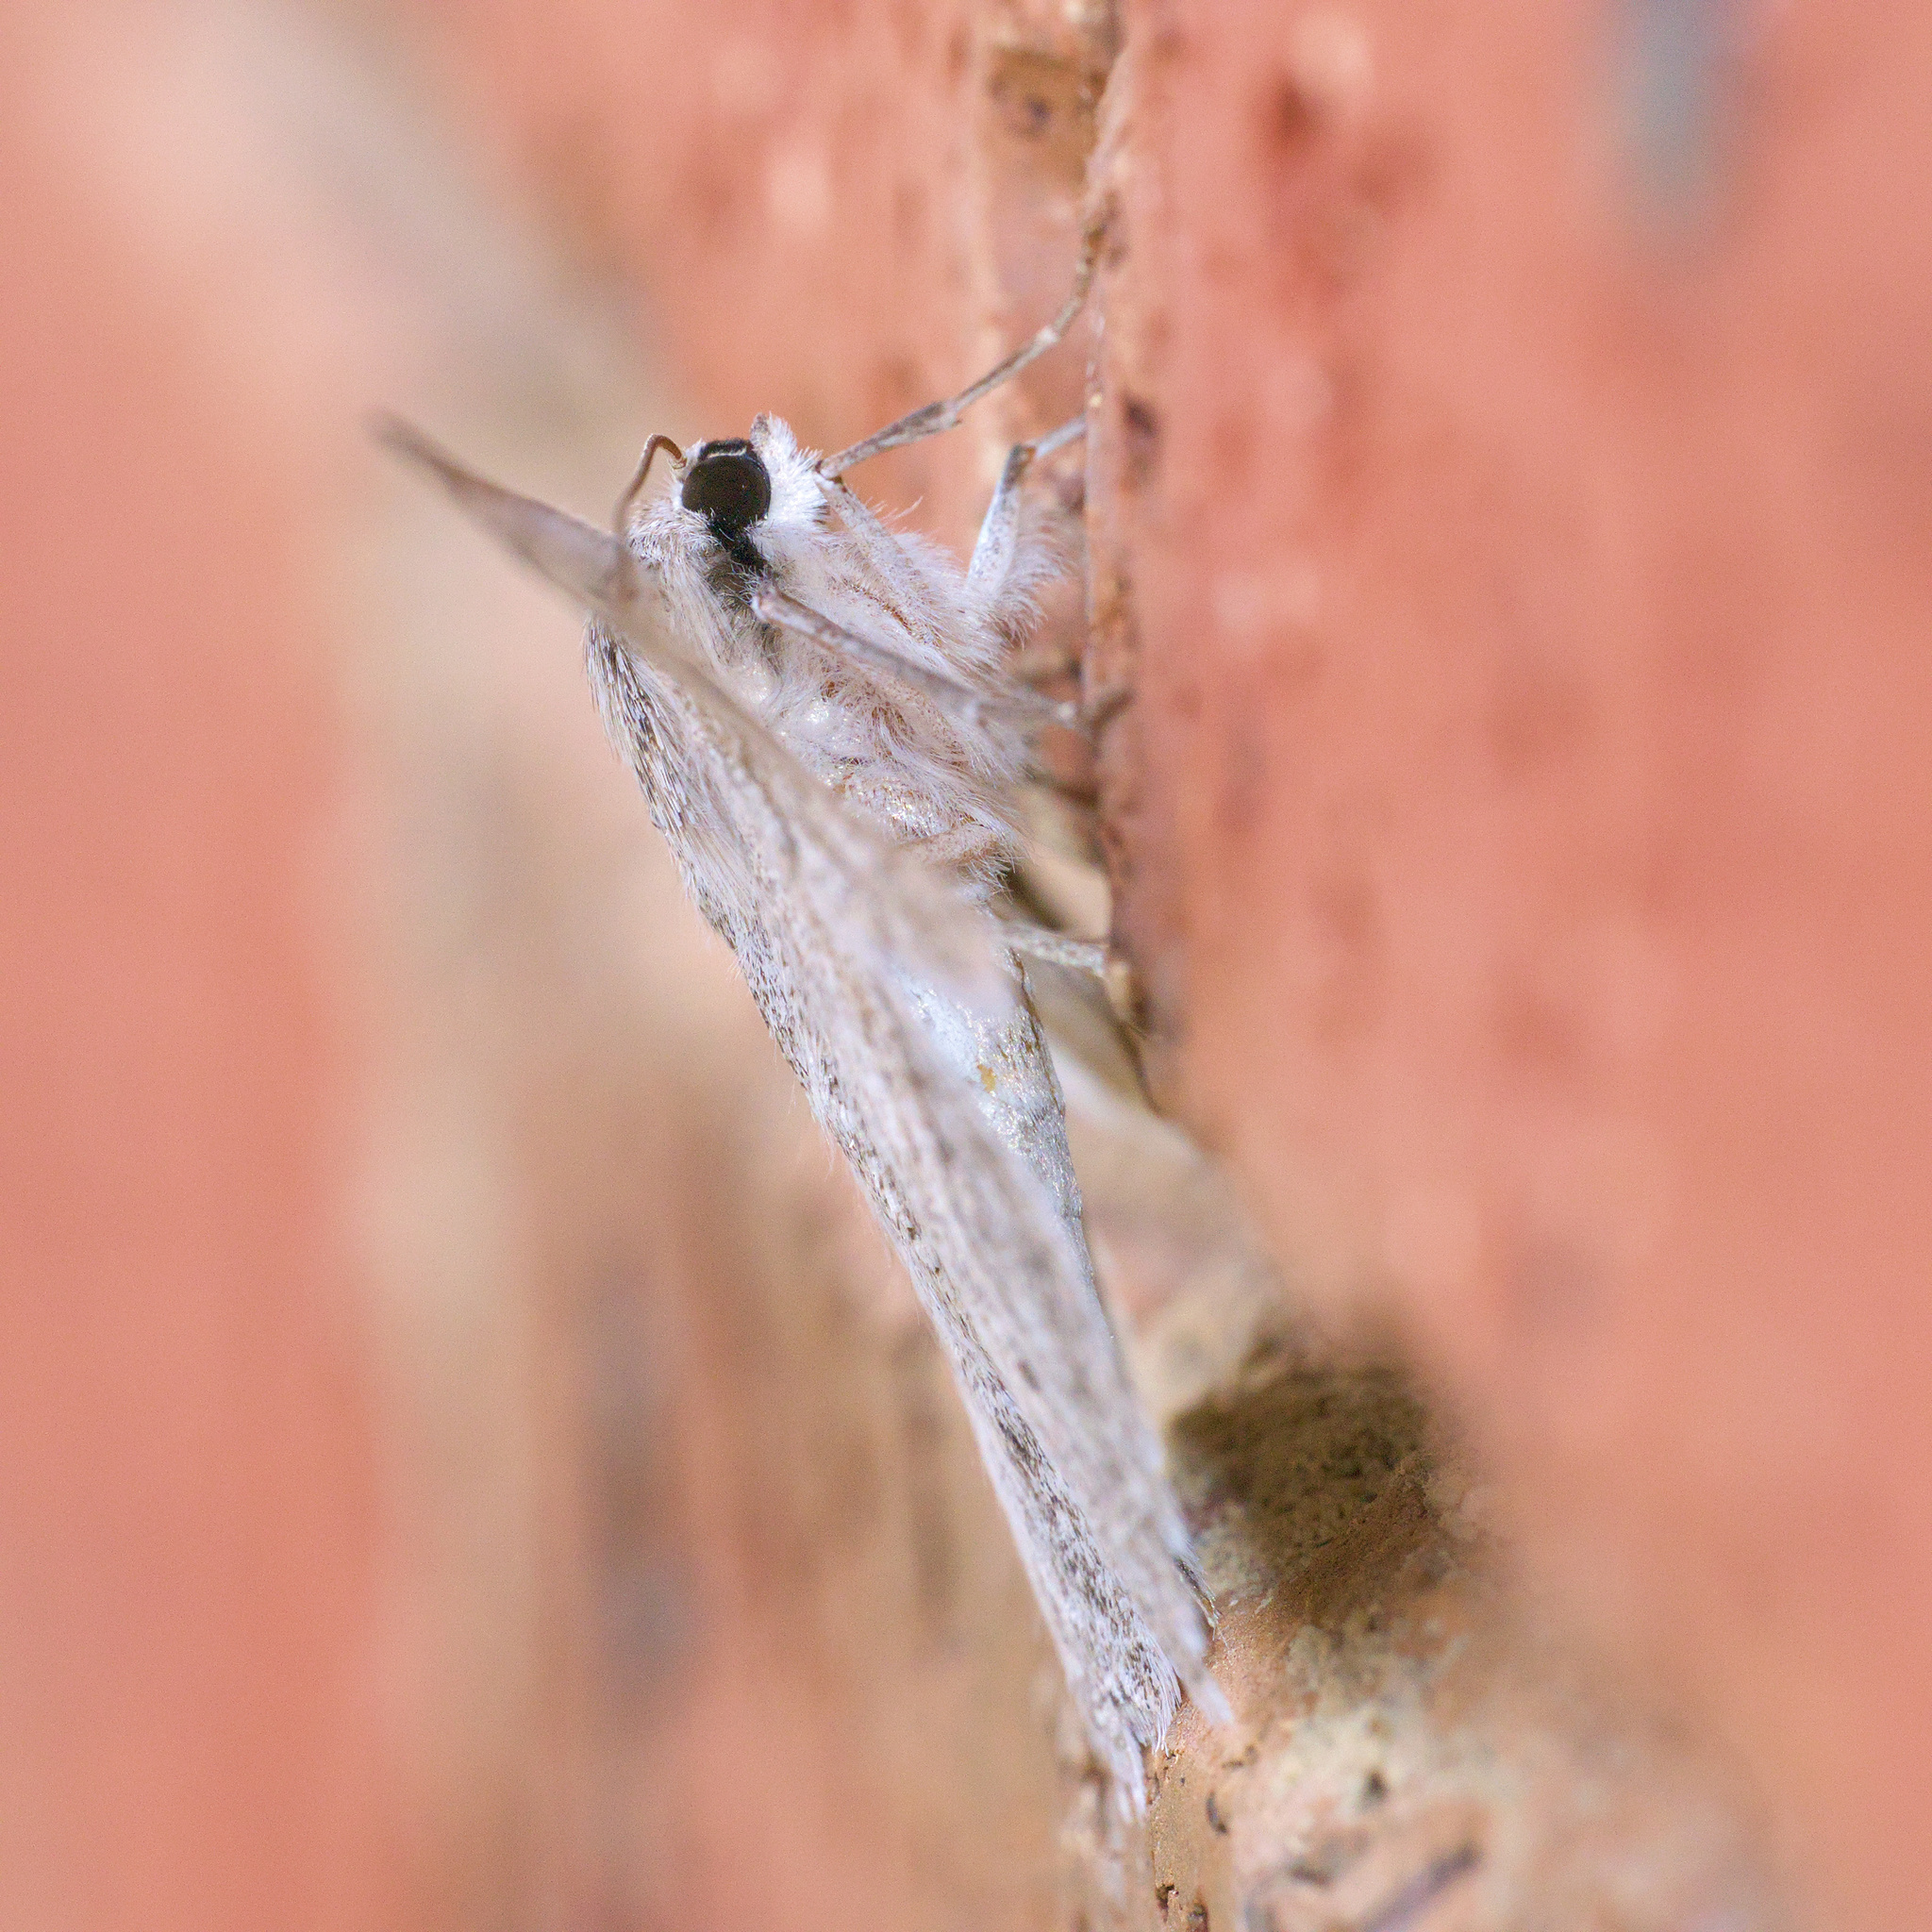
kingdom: Animalia
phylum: Arthropoda
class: Insecta
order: Lepidoptera
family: Geometridae
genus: Crypsiphona
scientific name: Crypsiphona ocultaria
